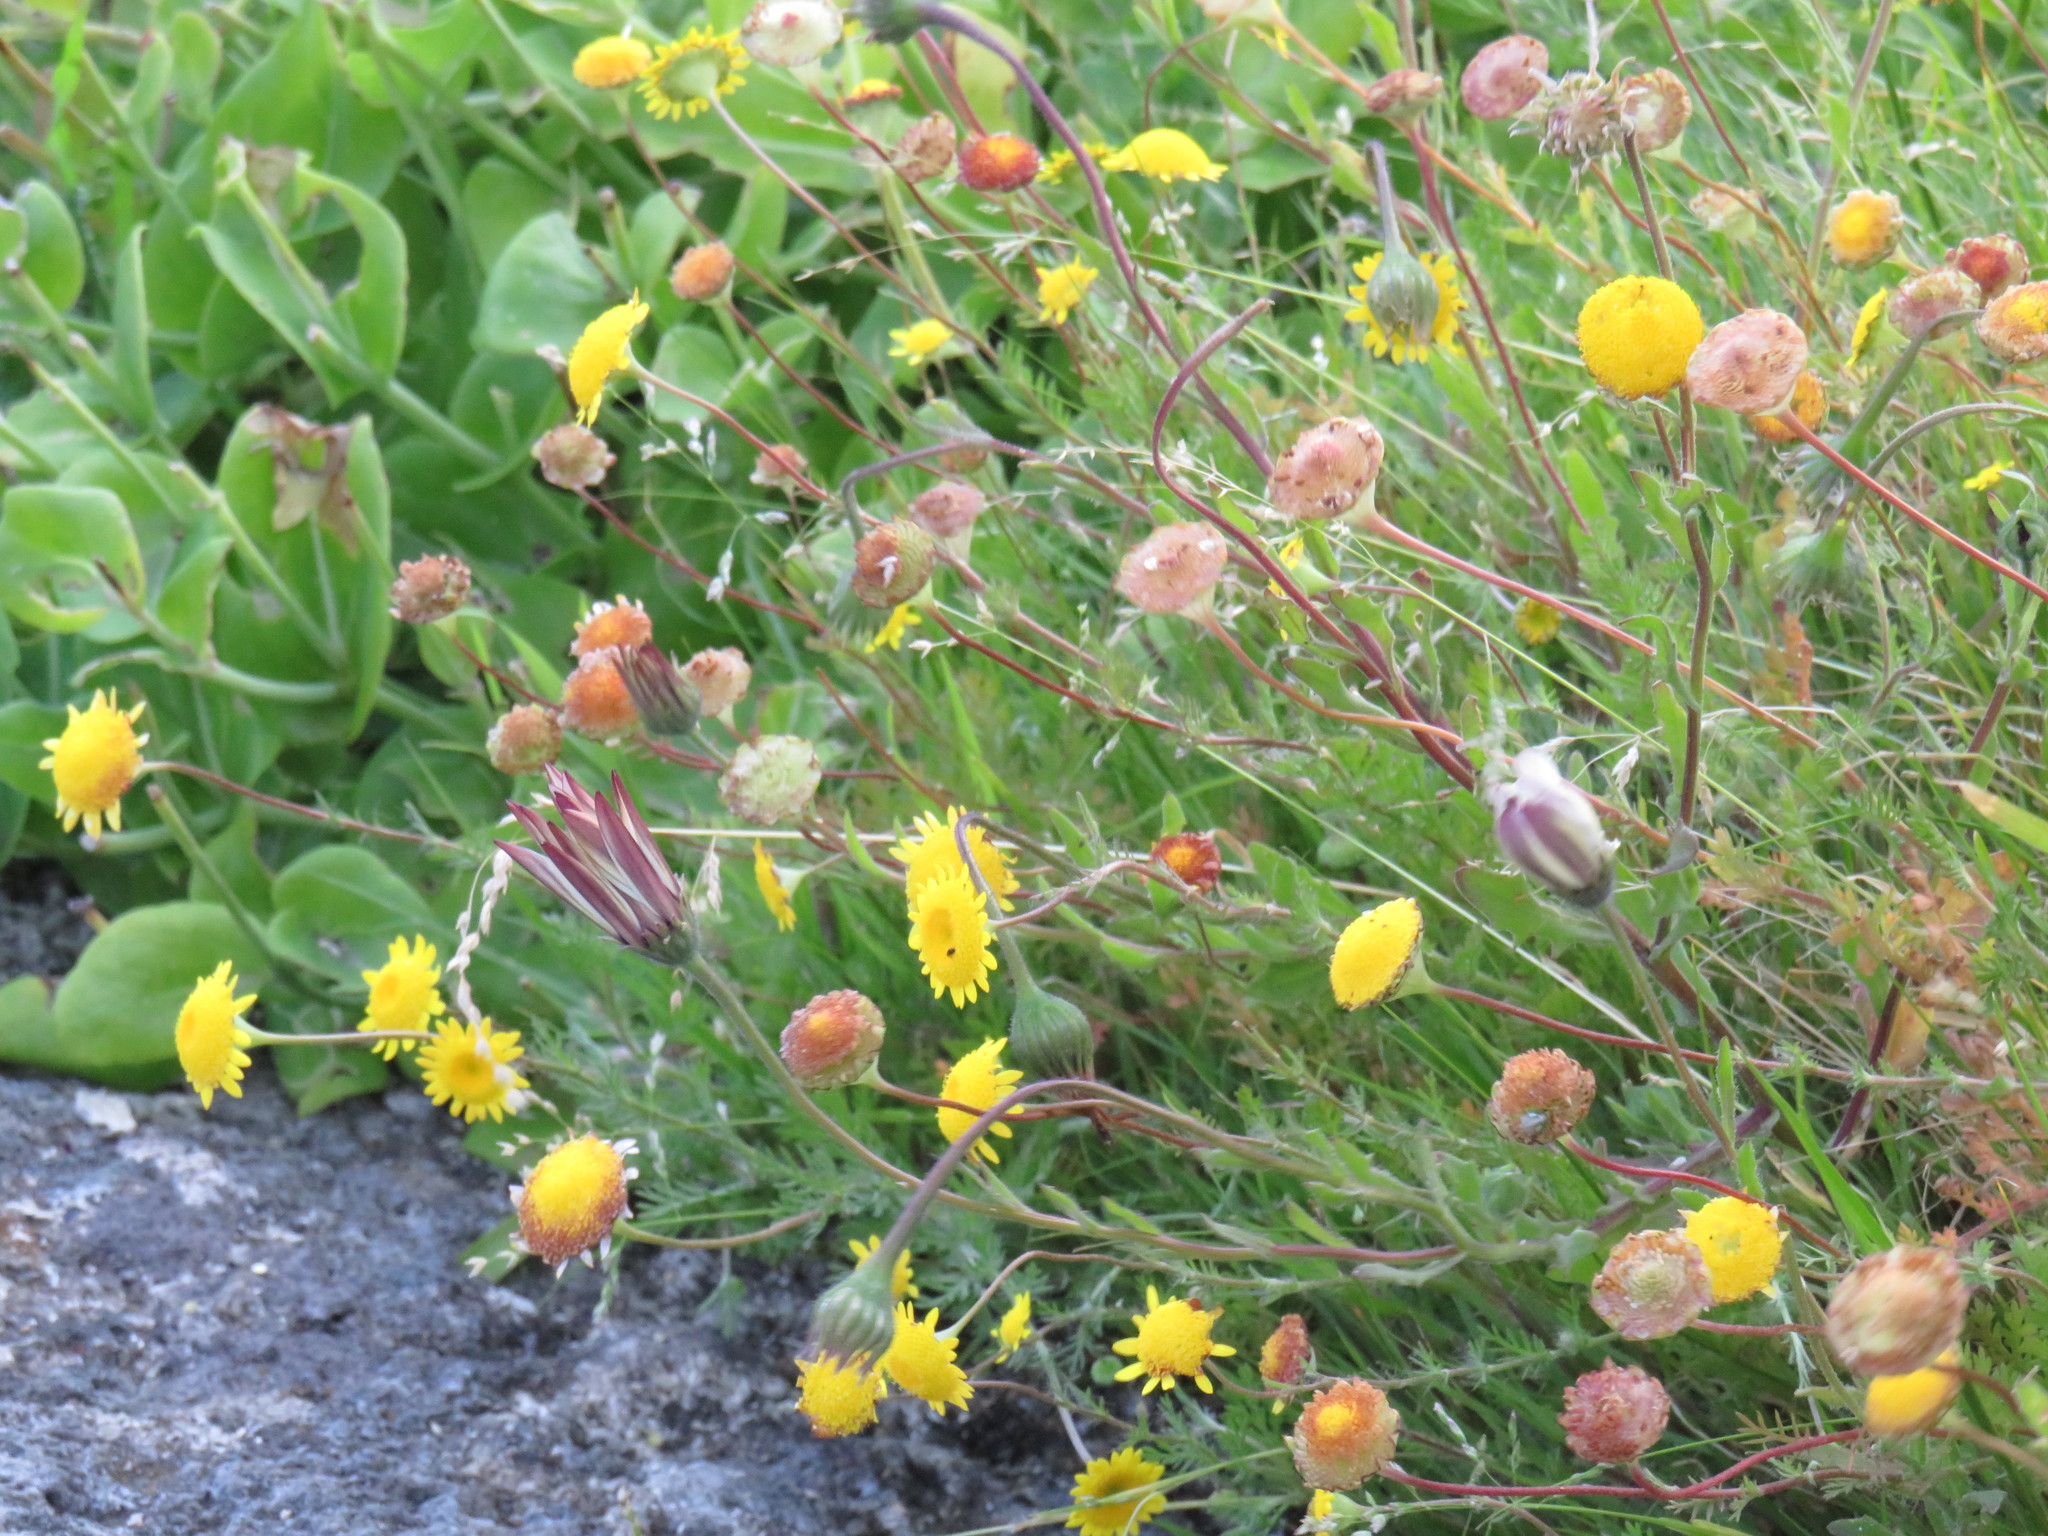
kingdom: Plantae
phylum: Tracheophyta
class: Magnoliopsida
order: Asterales
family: Asteraceae
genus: Dimorphotheca
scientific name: Dimorphotheca pluvialis
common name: Weather prophet
